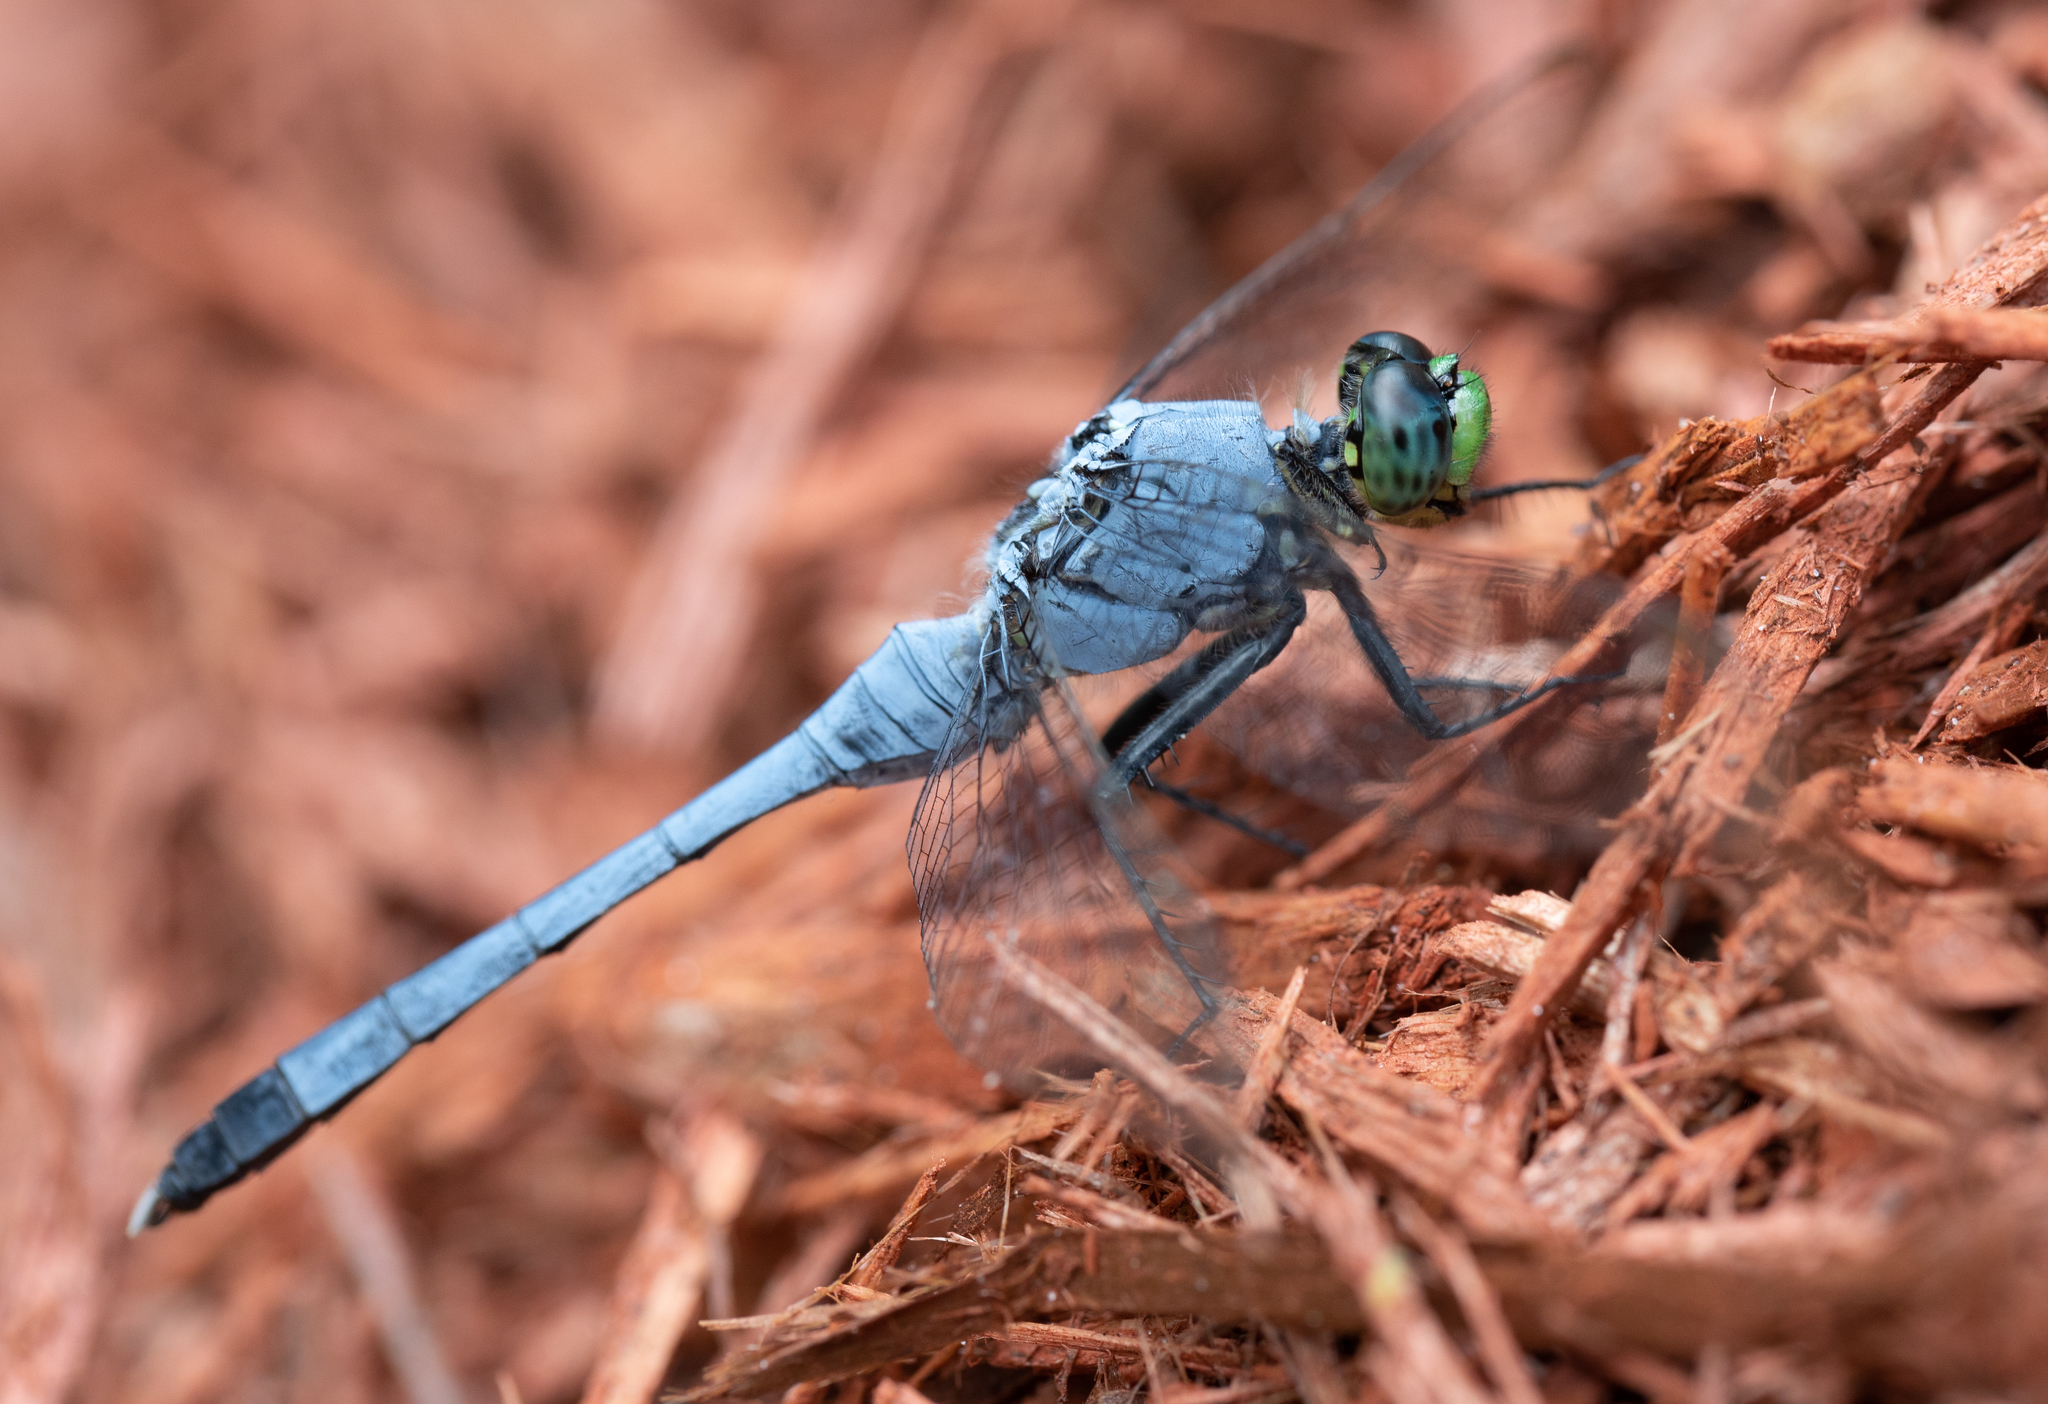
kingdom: Animalia
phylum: Arthropoda
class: Insecta
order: Odonata
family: Libellulidae
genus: Erythemis
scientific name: Erythemis simplicicollis
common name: Eastern pondhawk
